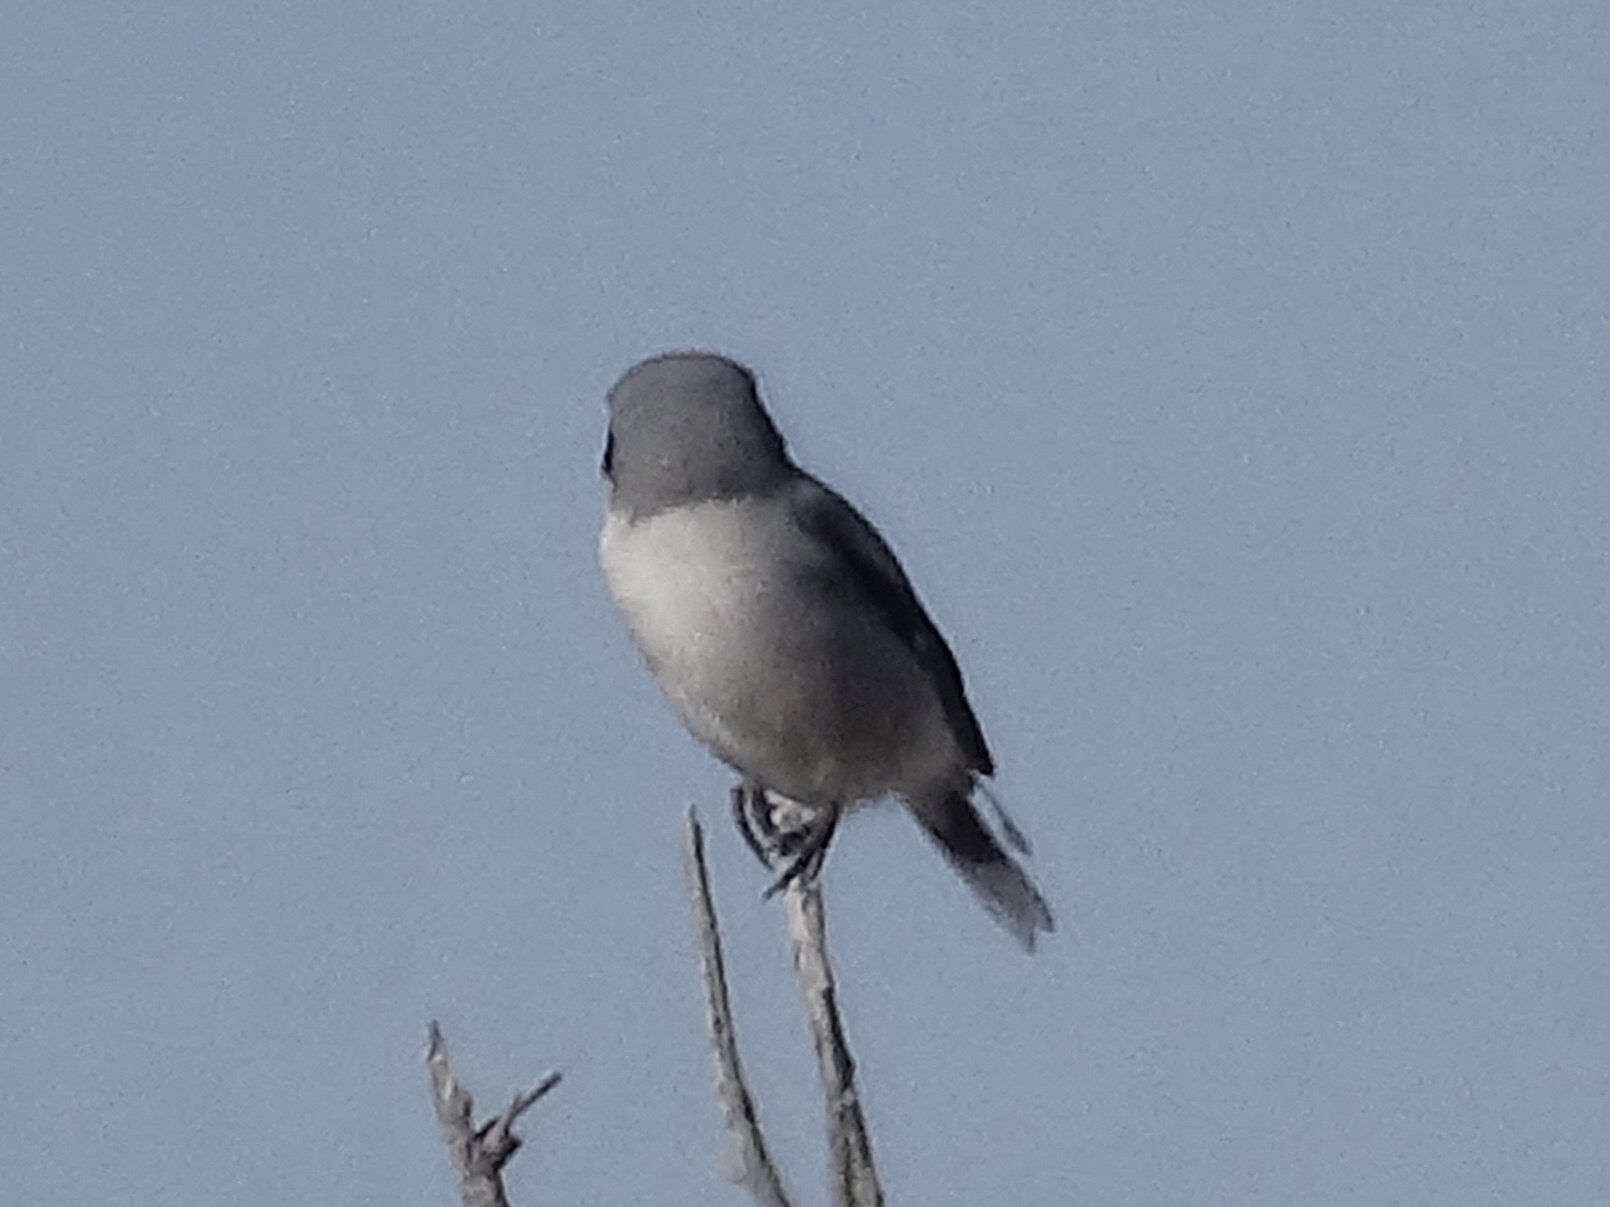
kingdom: Animalia
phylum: Chordata
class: Aves
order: Passeriformes
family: Laniidae
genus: Lanius
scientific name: Lanius ludovicianus
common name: Loggerhead shrike
